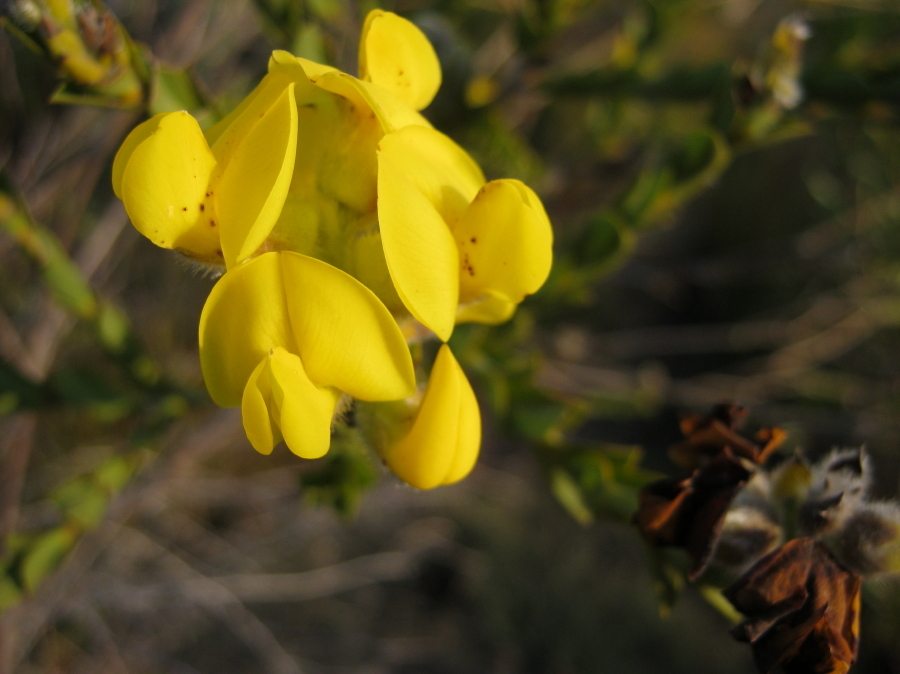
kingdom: Plantae
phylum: Tracheophyta
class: Magnoliopsida
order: Fabales
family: Fabaceae
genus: Liparia
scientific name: Liparia hirsuta
